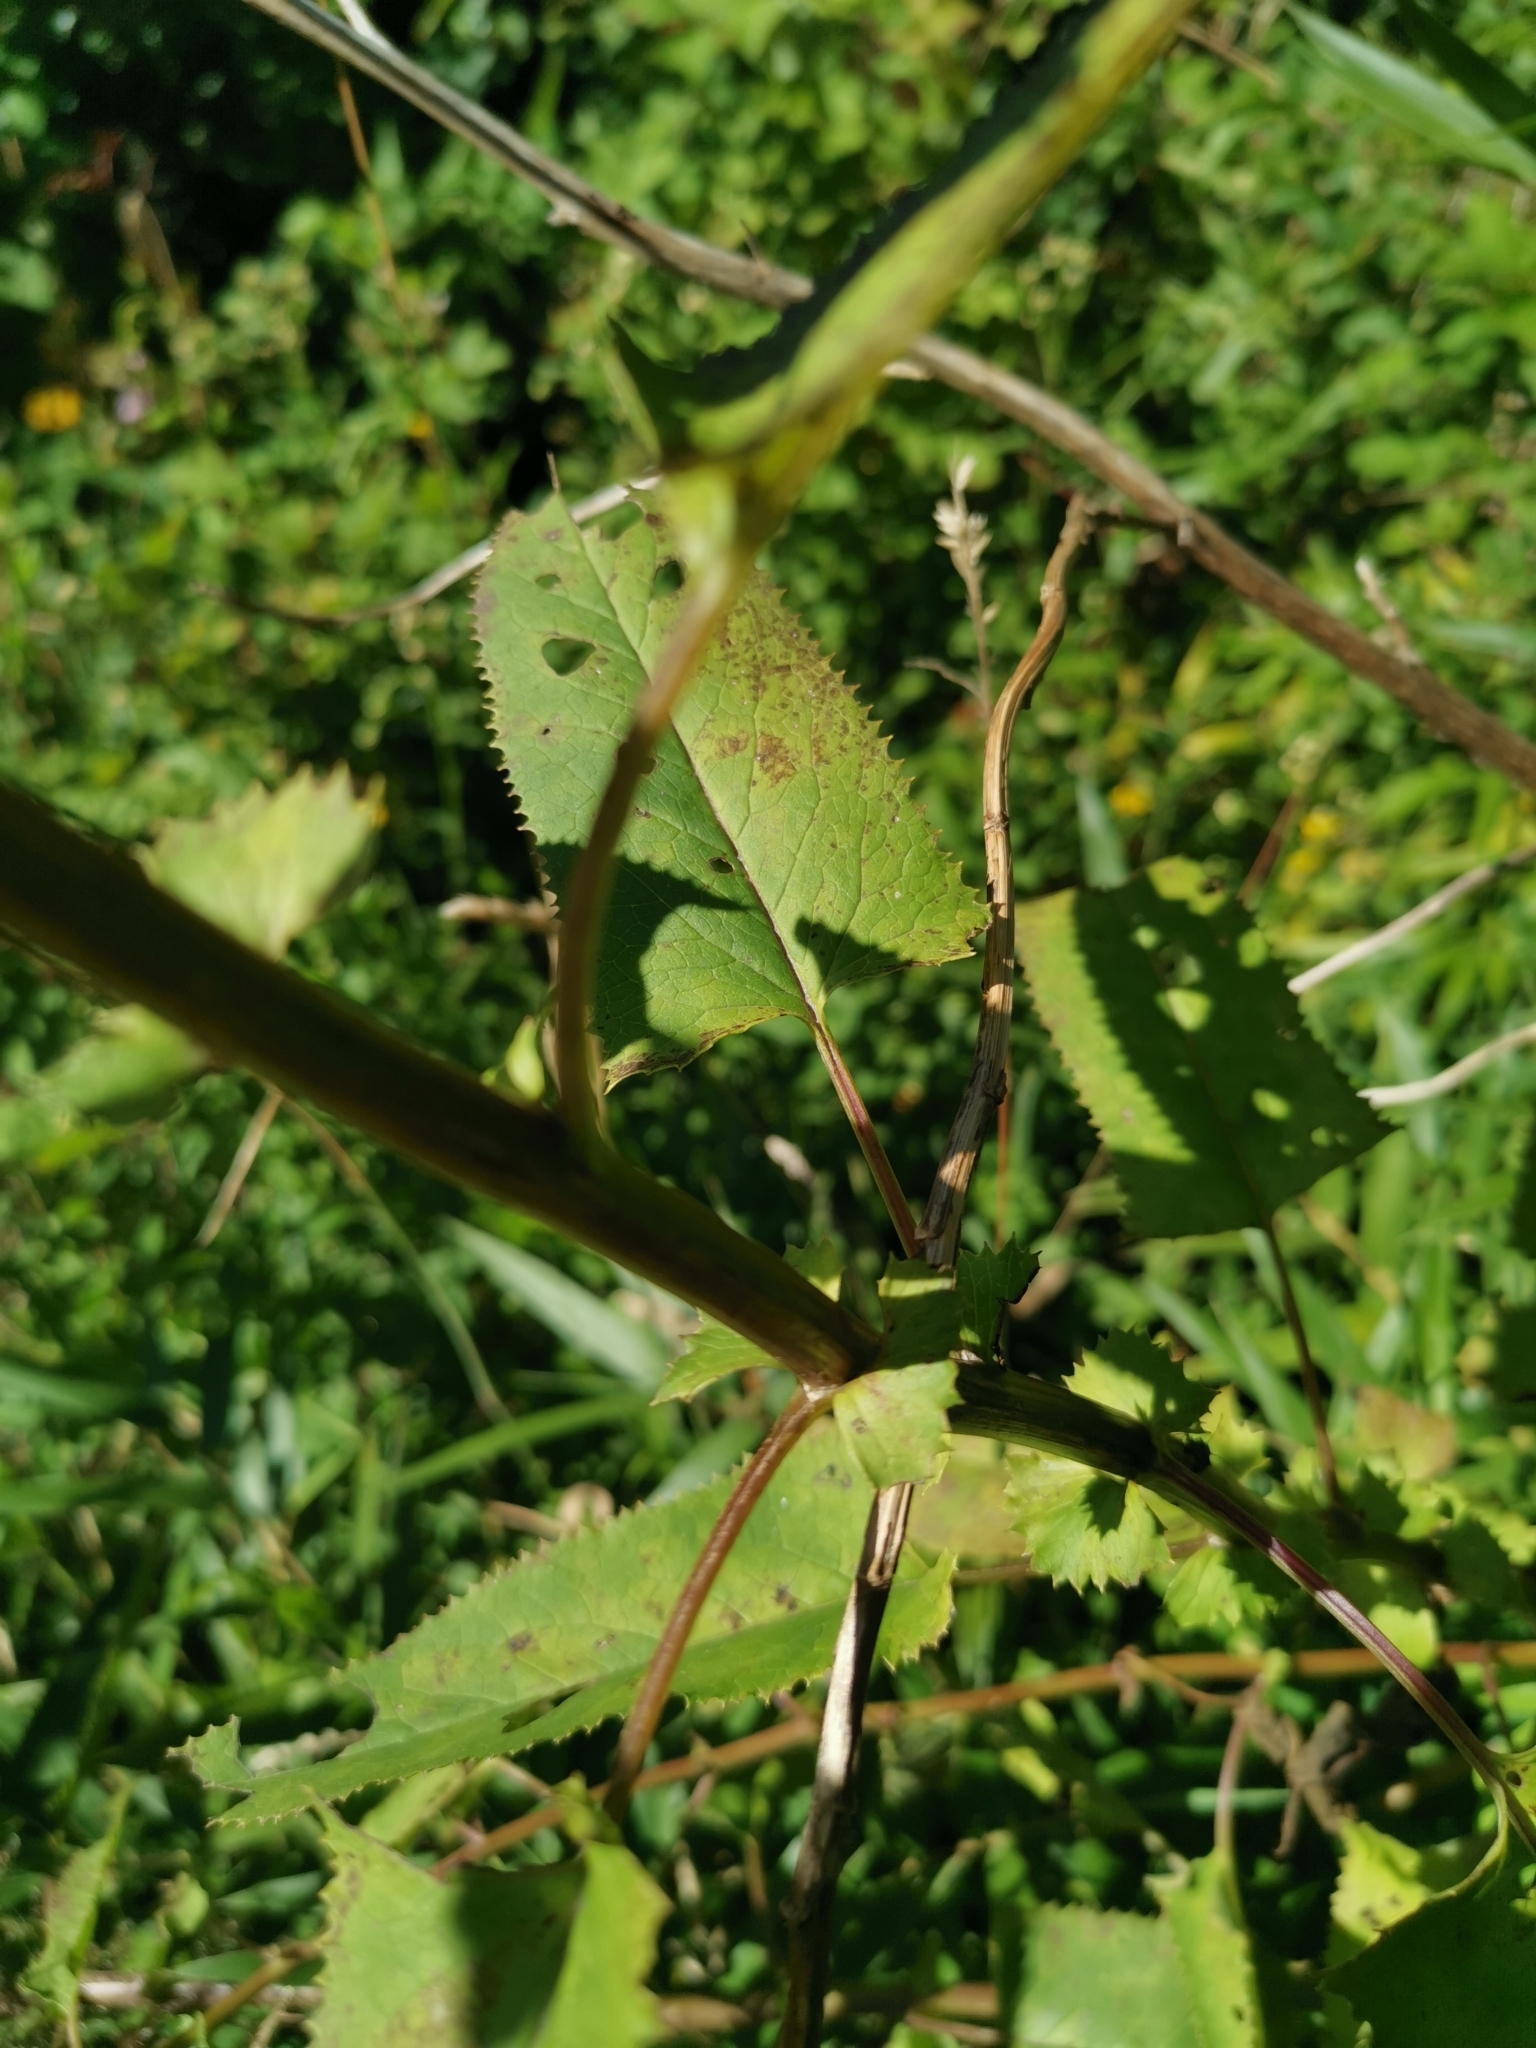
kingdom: Plantae
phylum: Tracheophyta
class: Magnoliopsida
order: Asterales
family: Asteraceae
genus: Senecio
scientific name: Senecio otites
